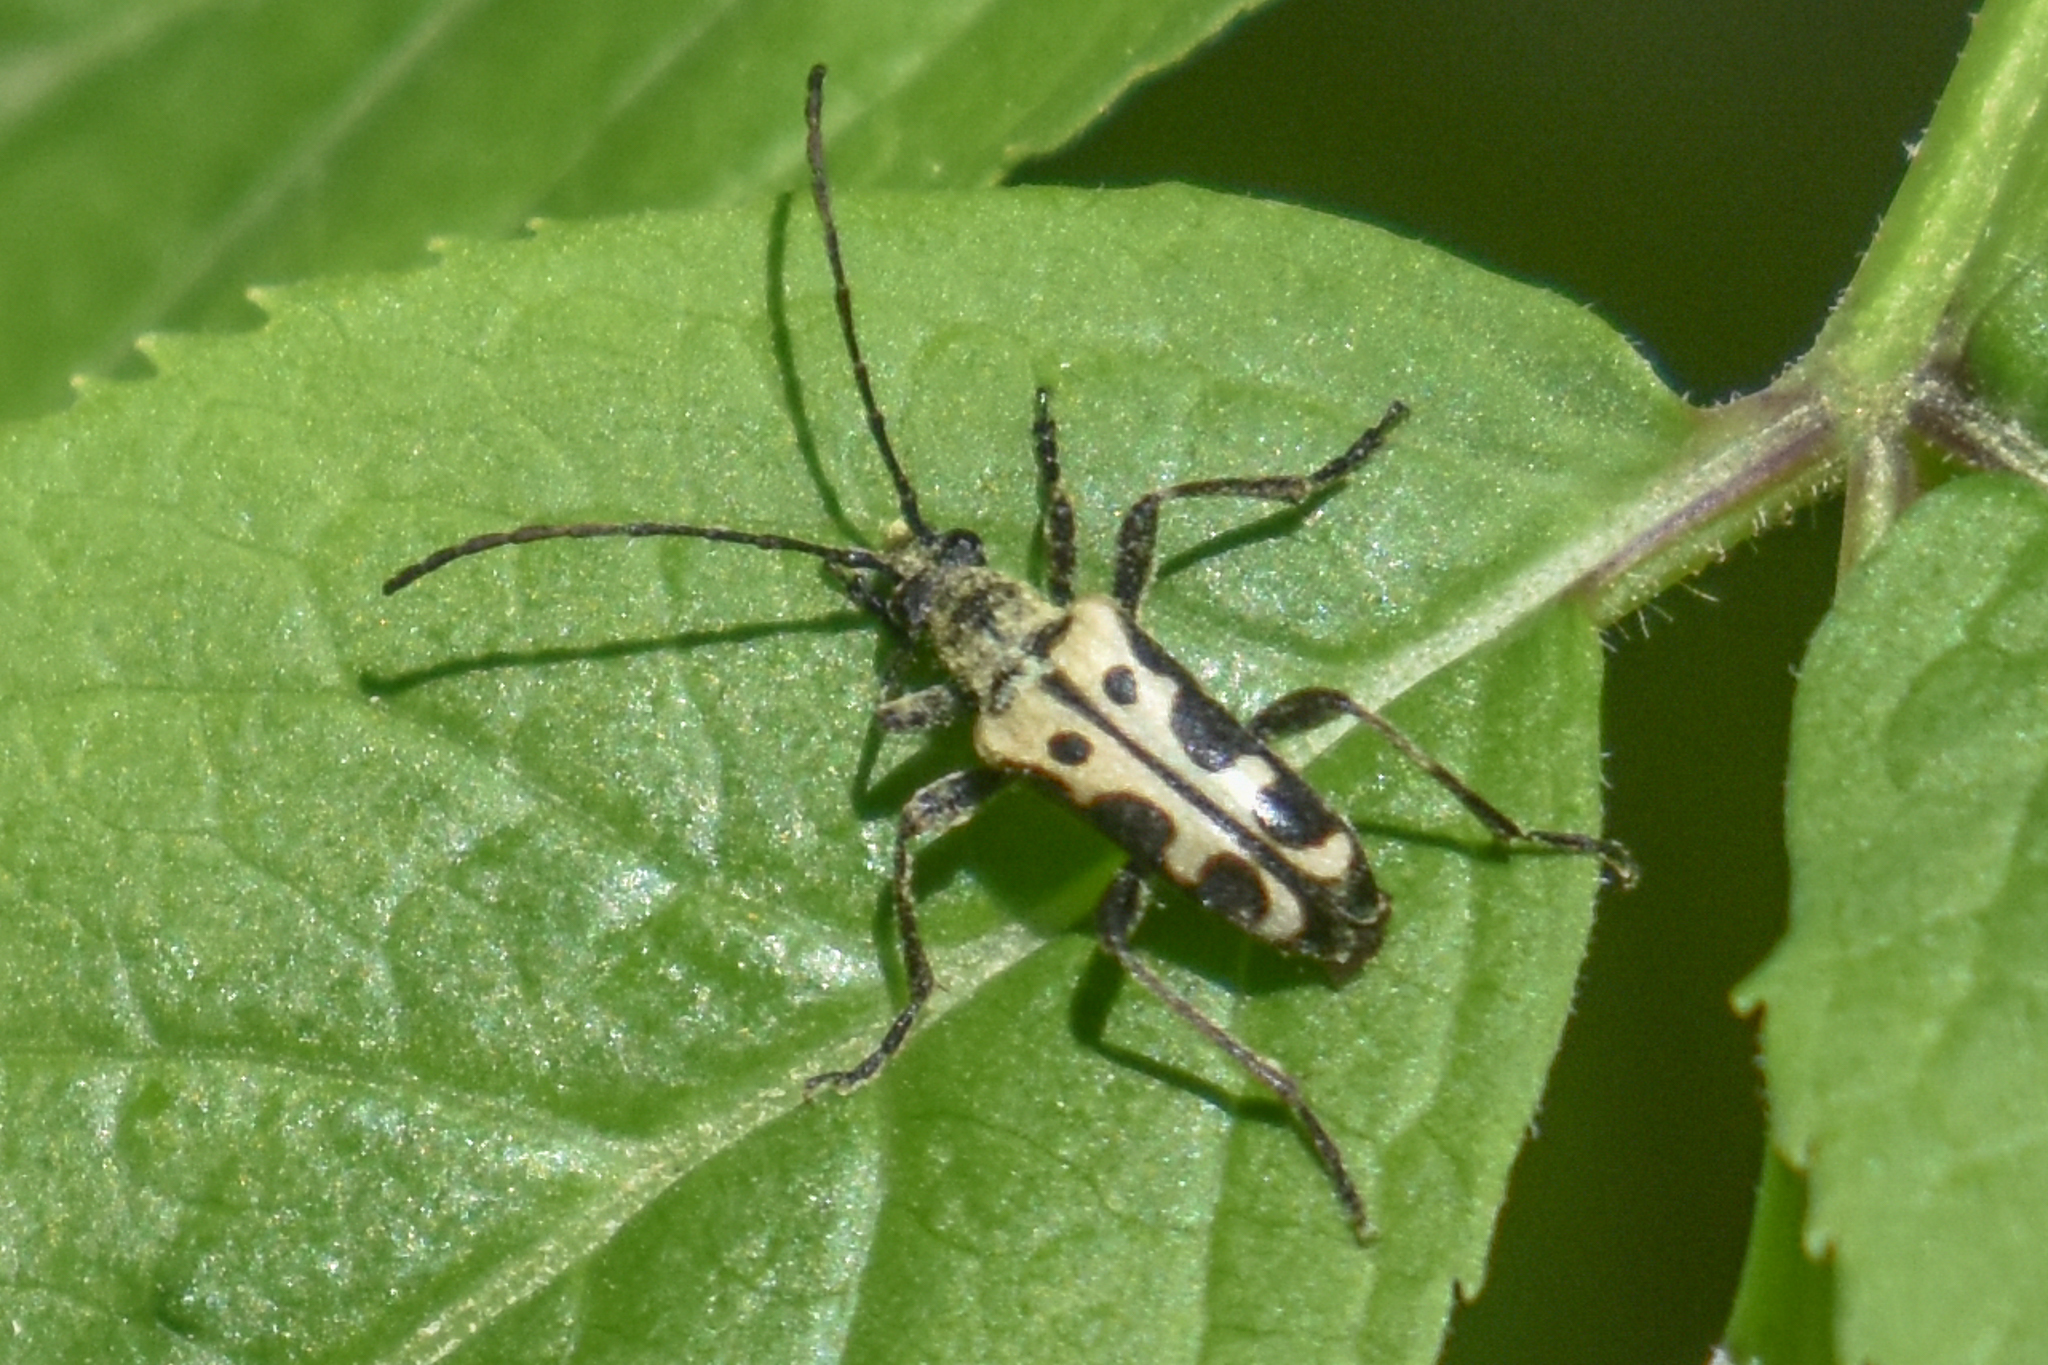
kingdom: Animalia
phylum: Arthropoda
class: Insecta
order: Coleoptera
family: Cerambycidae
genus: Evodinus
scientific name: Evodinus monticola
